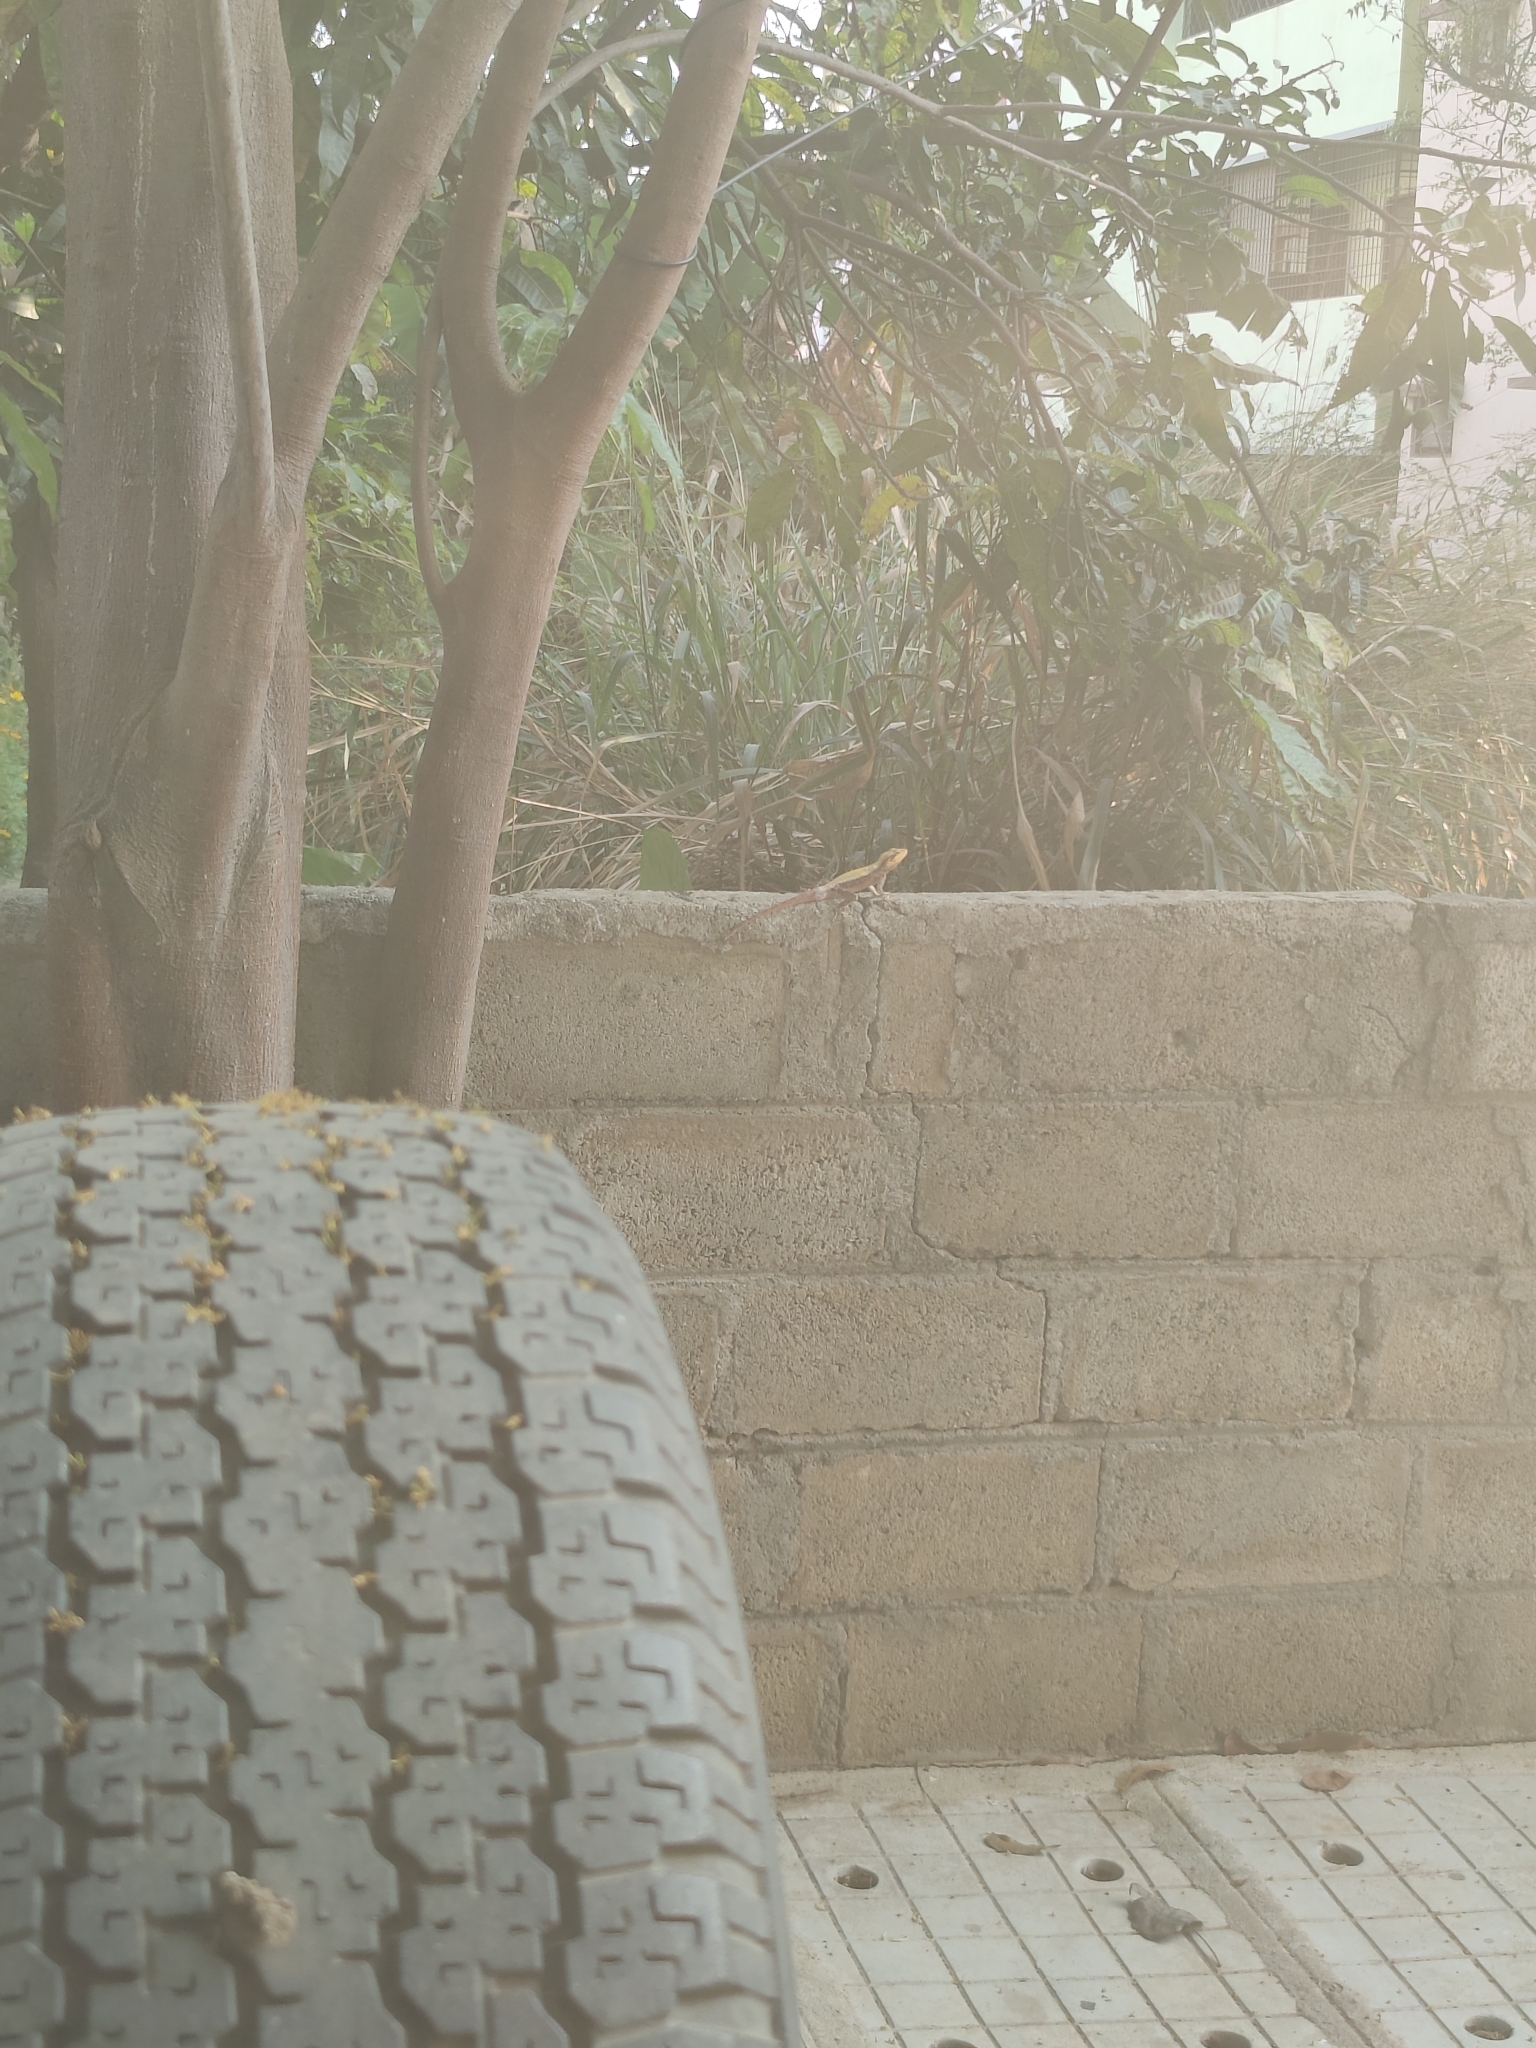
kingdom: Animalia
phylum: Chordata
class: Squamata
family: Agamidae
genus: Psammophilus
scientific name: Psammophilus
